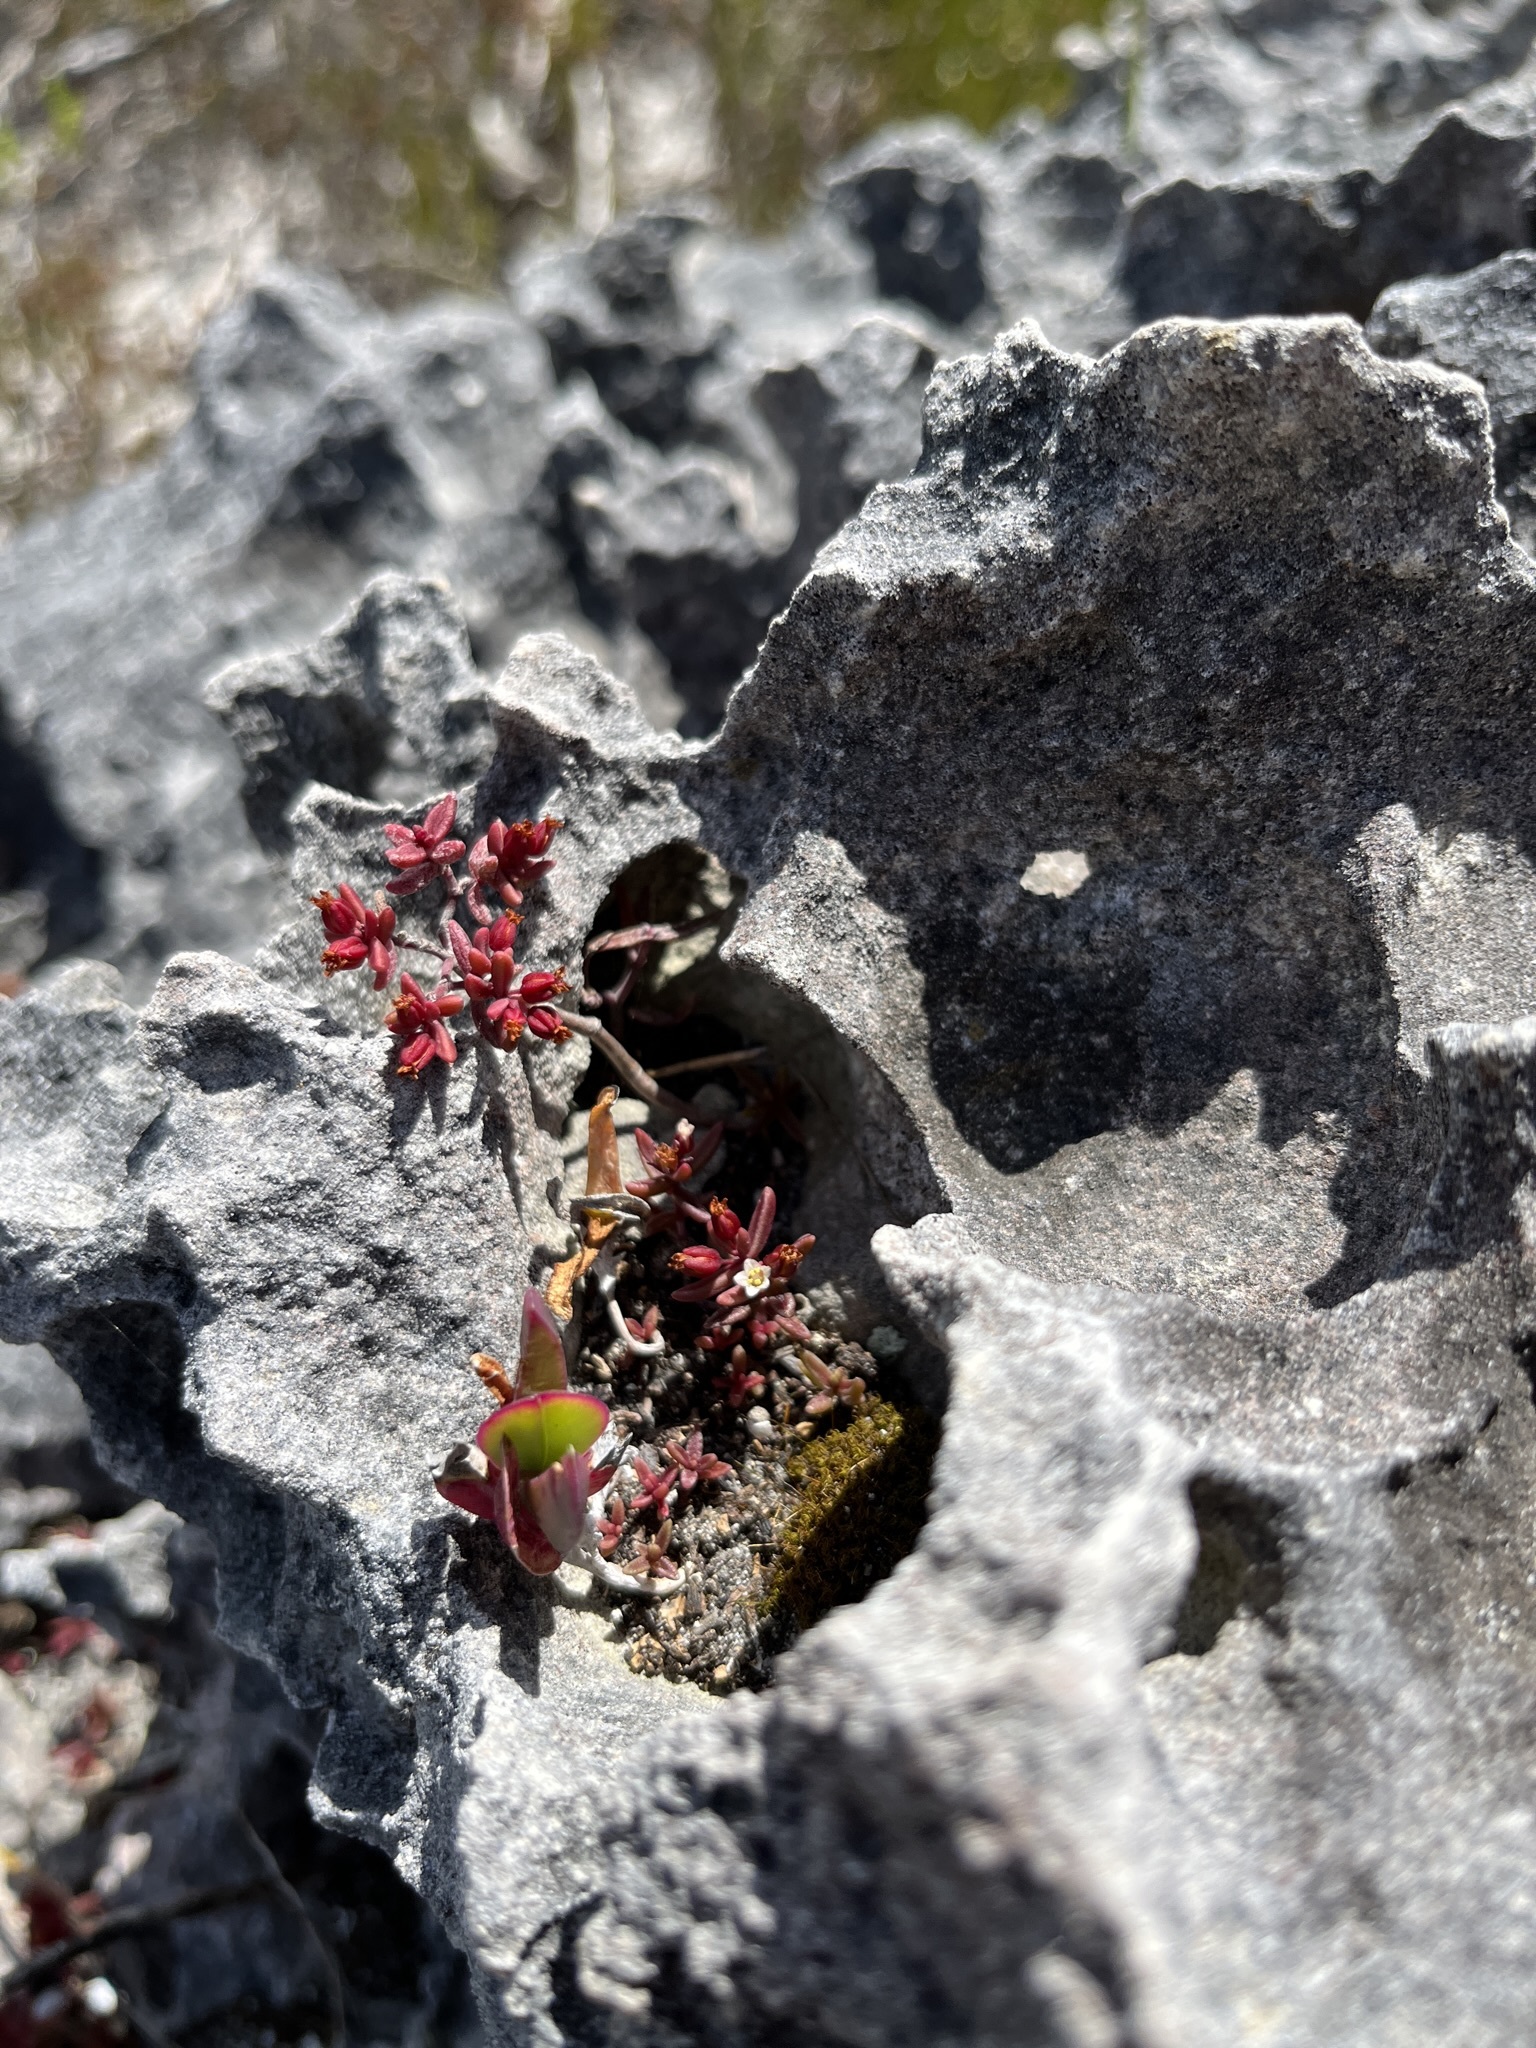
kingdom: Plantae
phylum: Tracheophyta
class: Magnoliopsida
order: Saxifragales
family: Crassulaceae
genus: Crassula
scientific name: Crassula expansa
